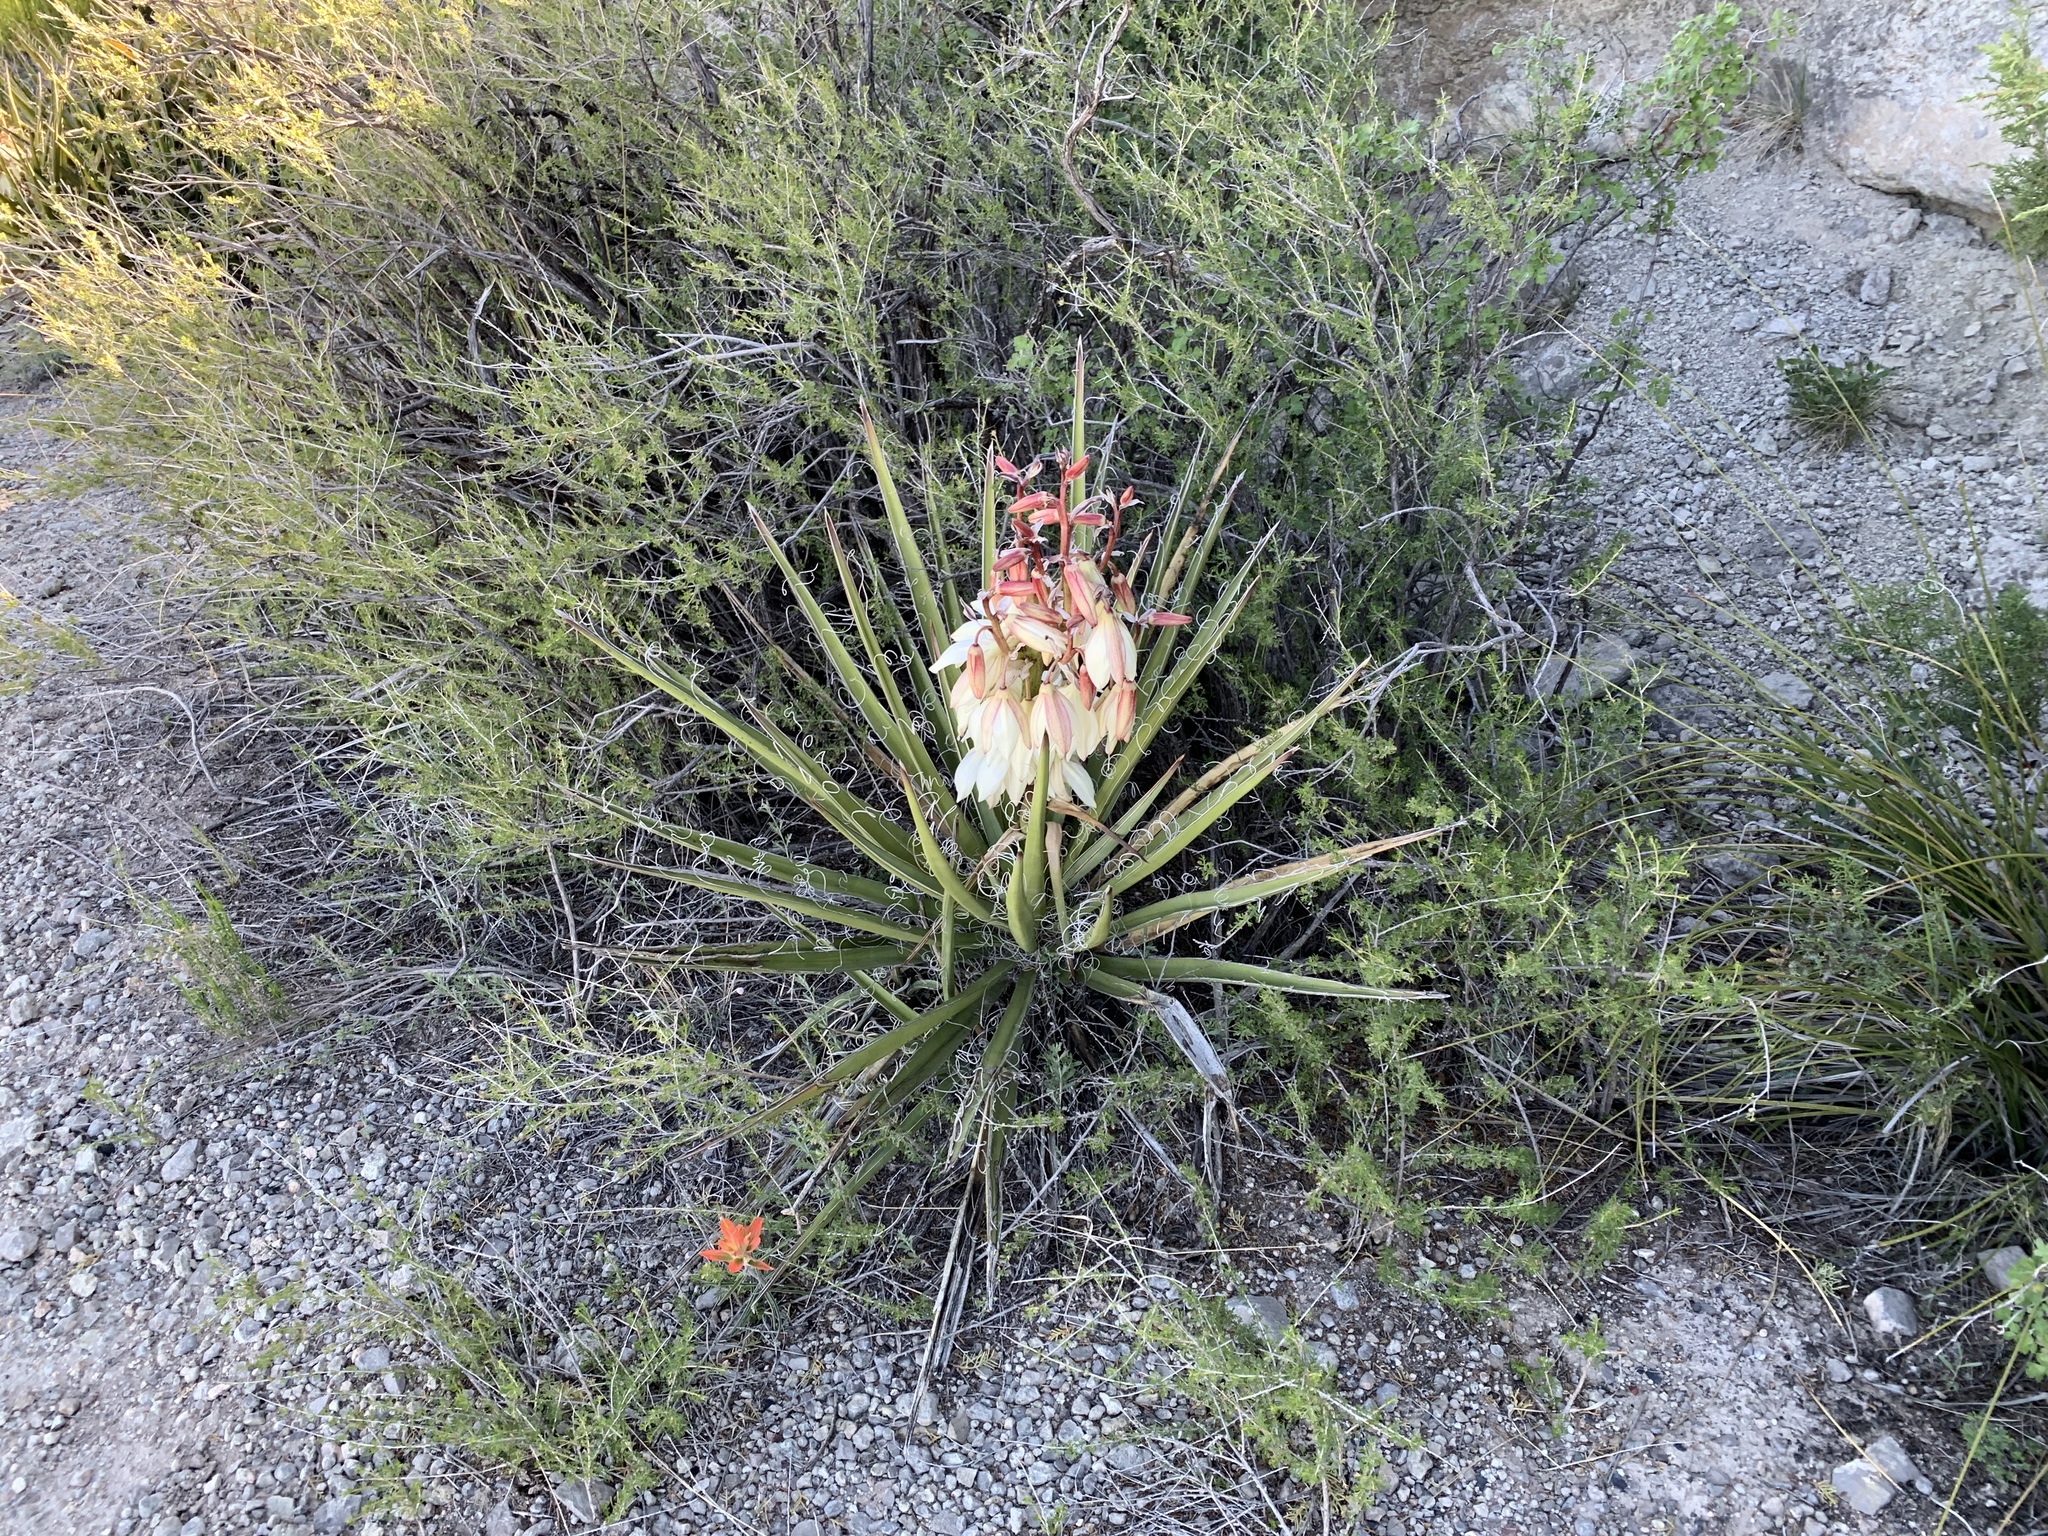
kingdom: Plantae
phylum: Tracheophyta
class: Liliopsida
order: Asparagales
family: Asparagaceae
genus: Yucca
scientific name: Yucca baccata
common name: Banana yucca
